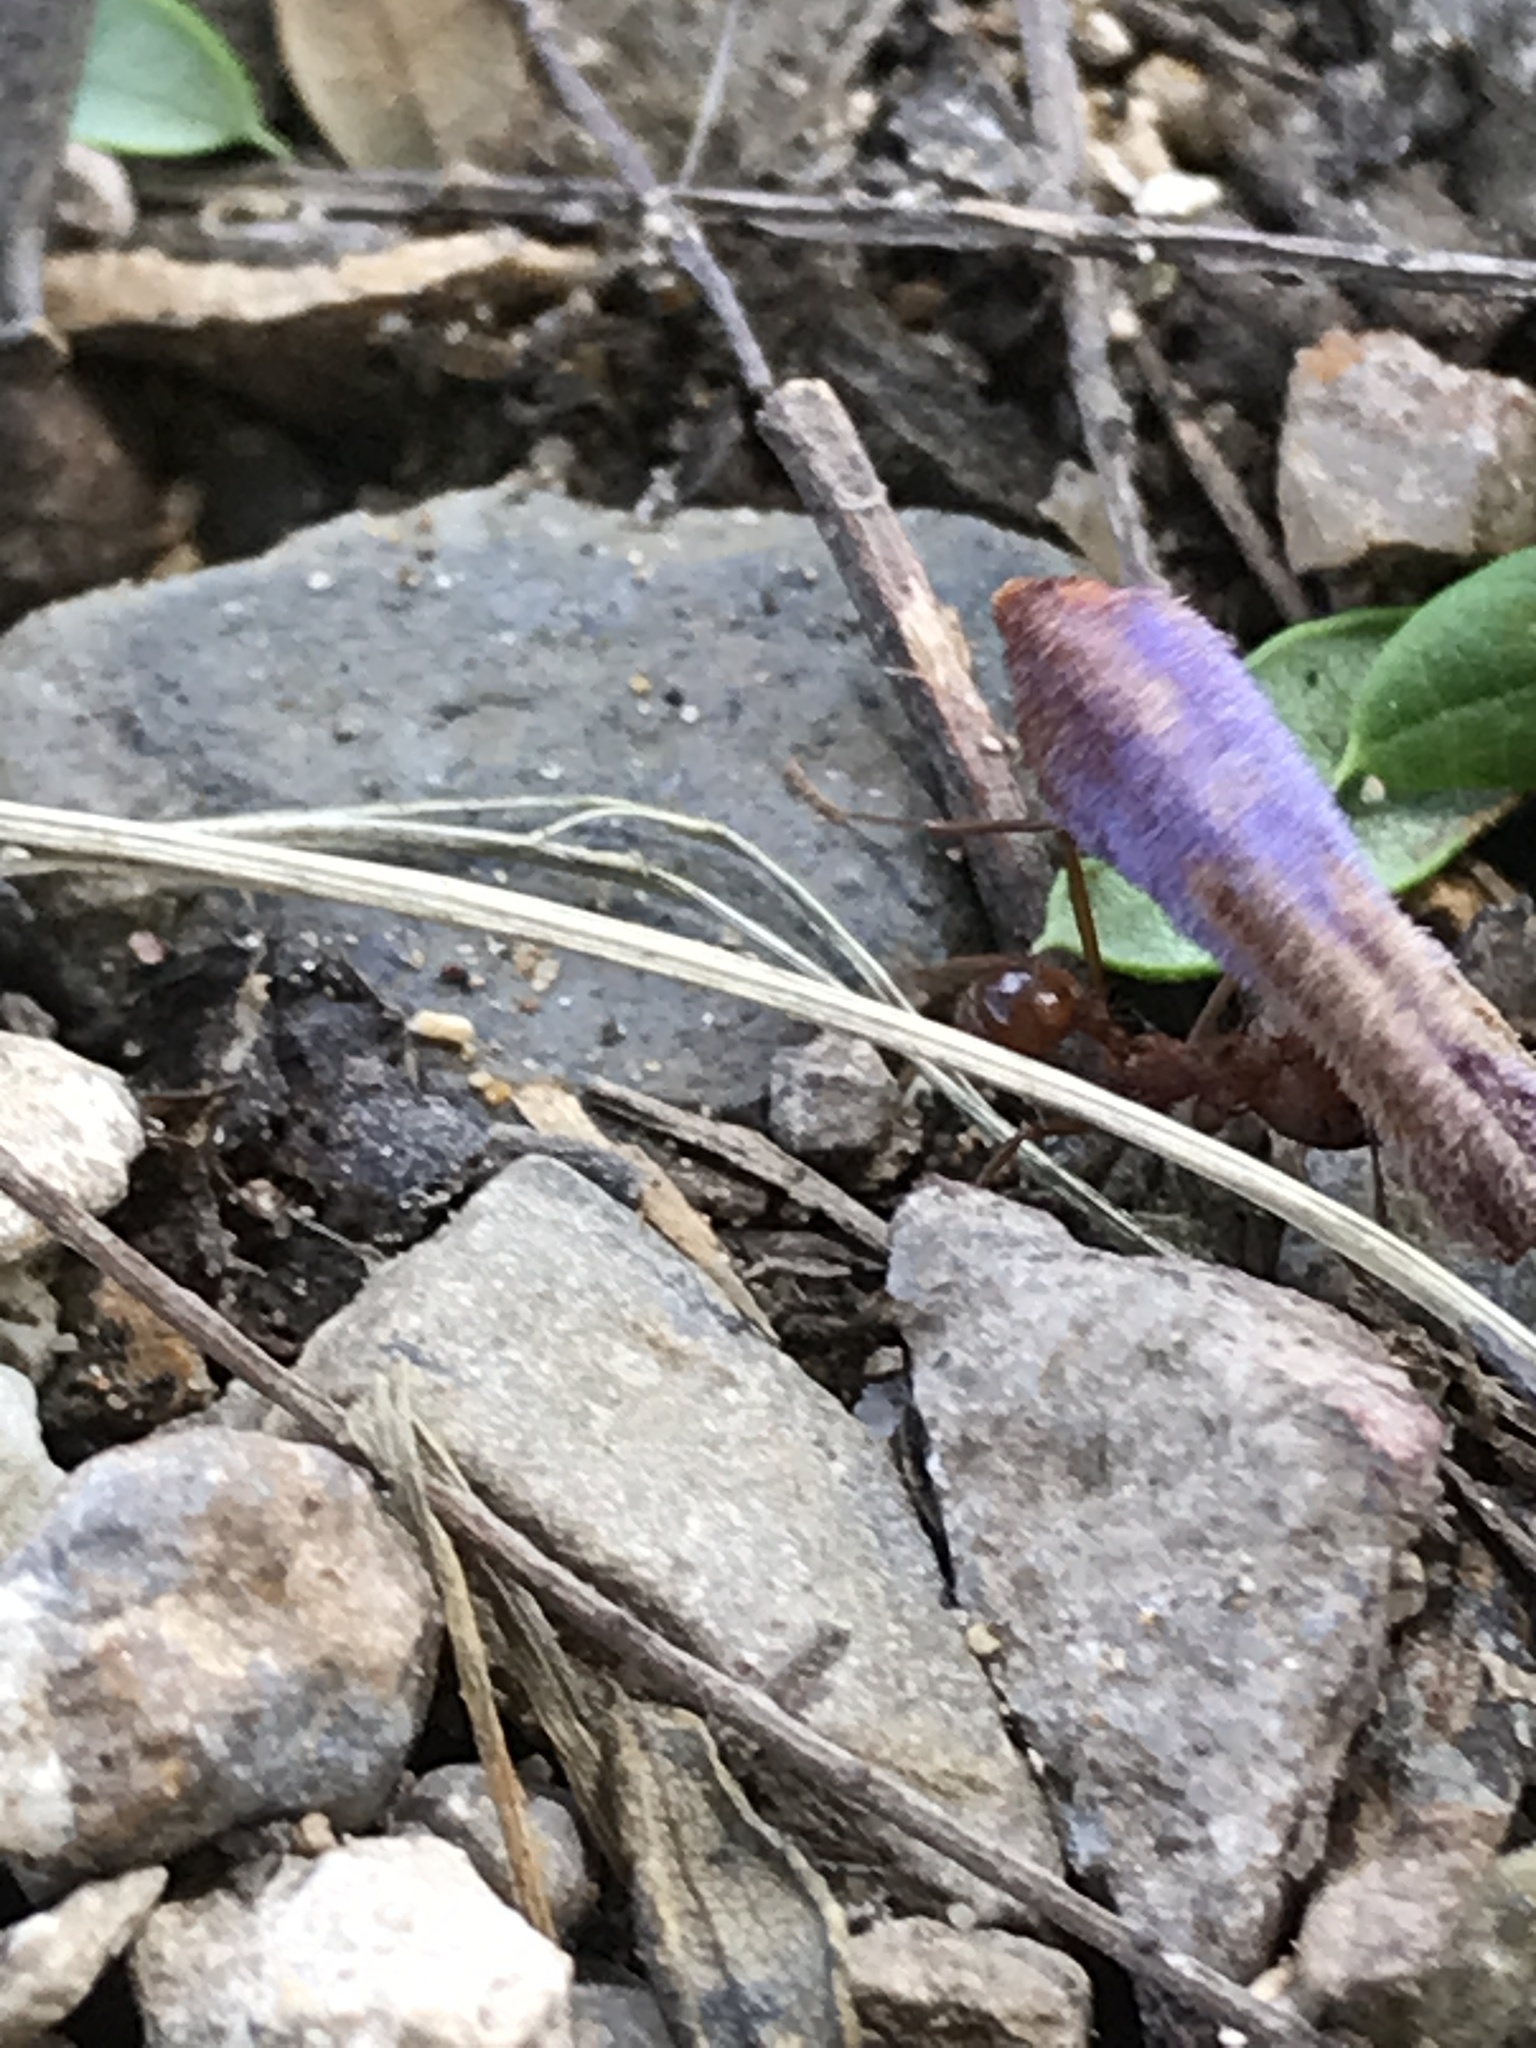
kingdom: Animalia
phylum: Arthropoda
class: Insecta
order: Hymenoptera
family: Formicidae
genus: Atta
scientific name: Atta mexicana
